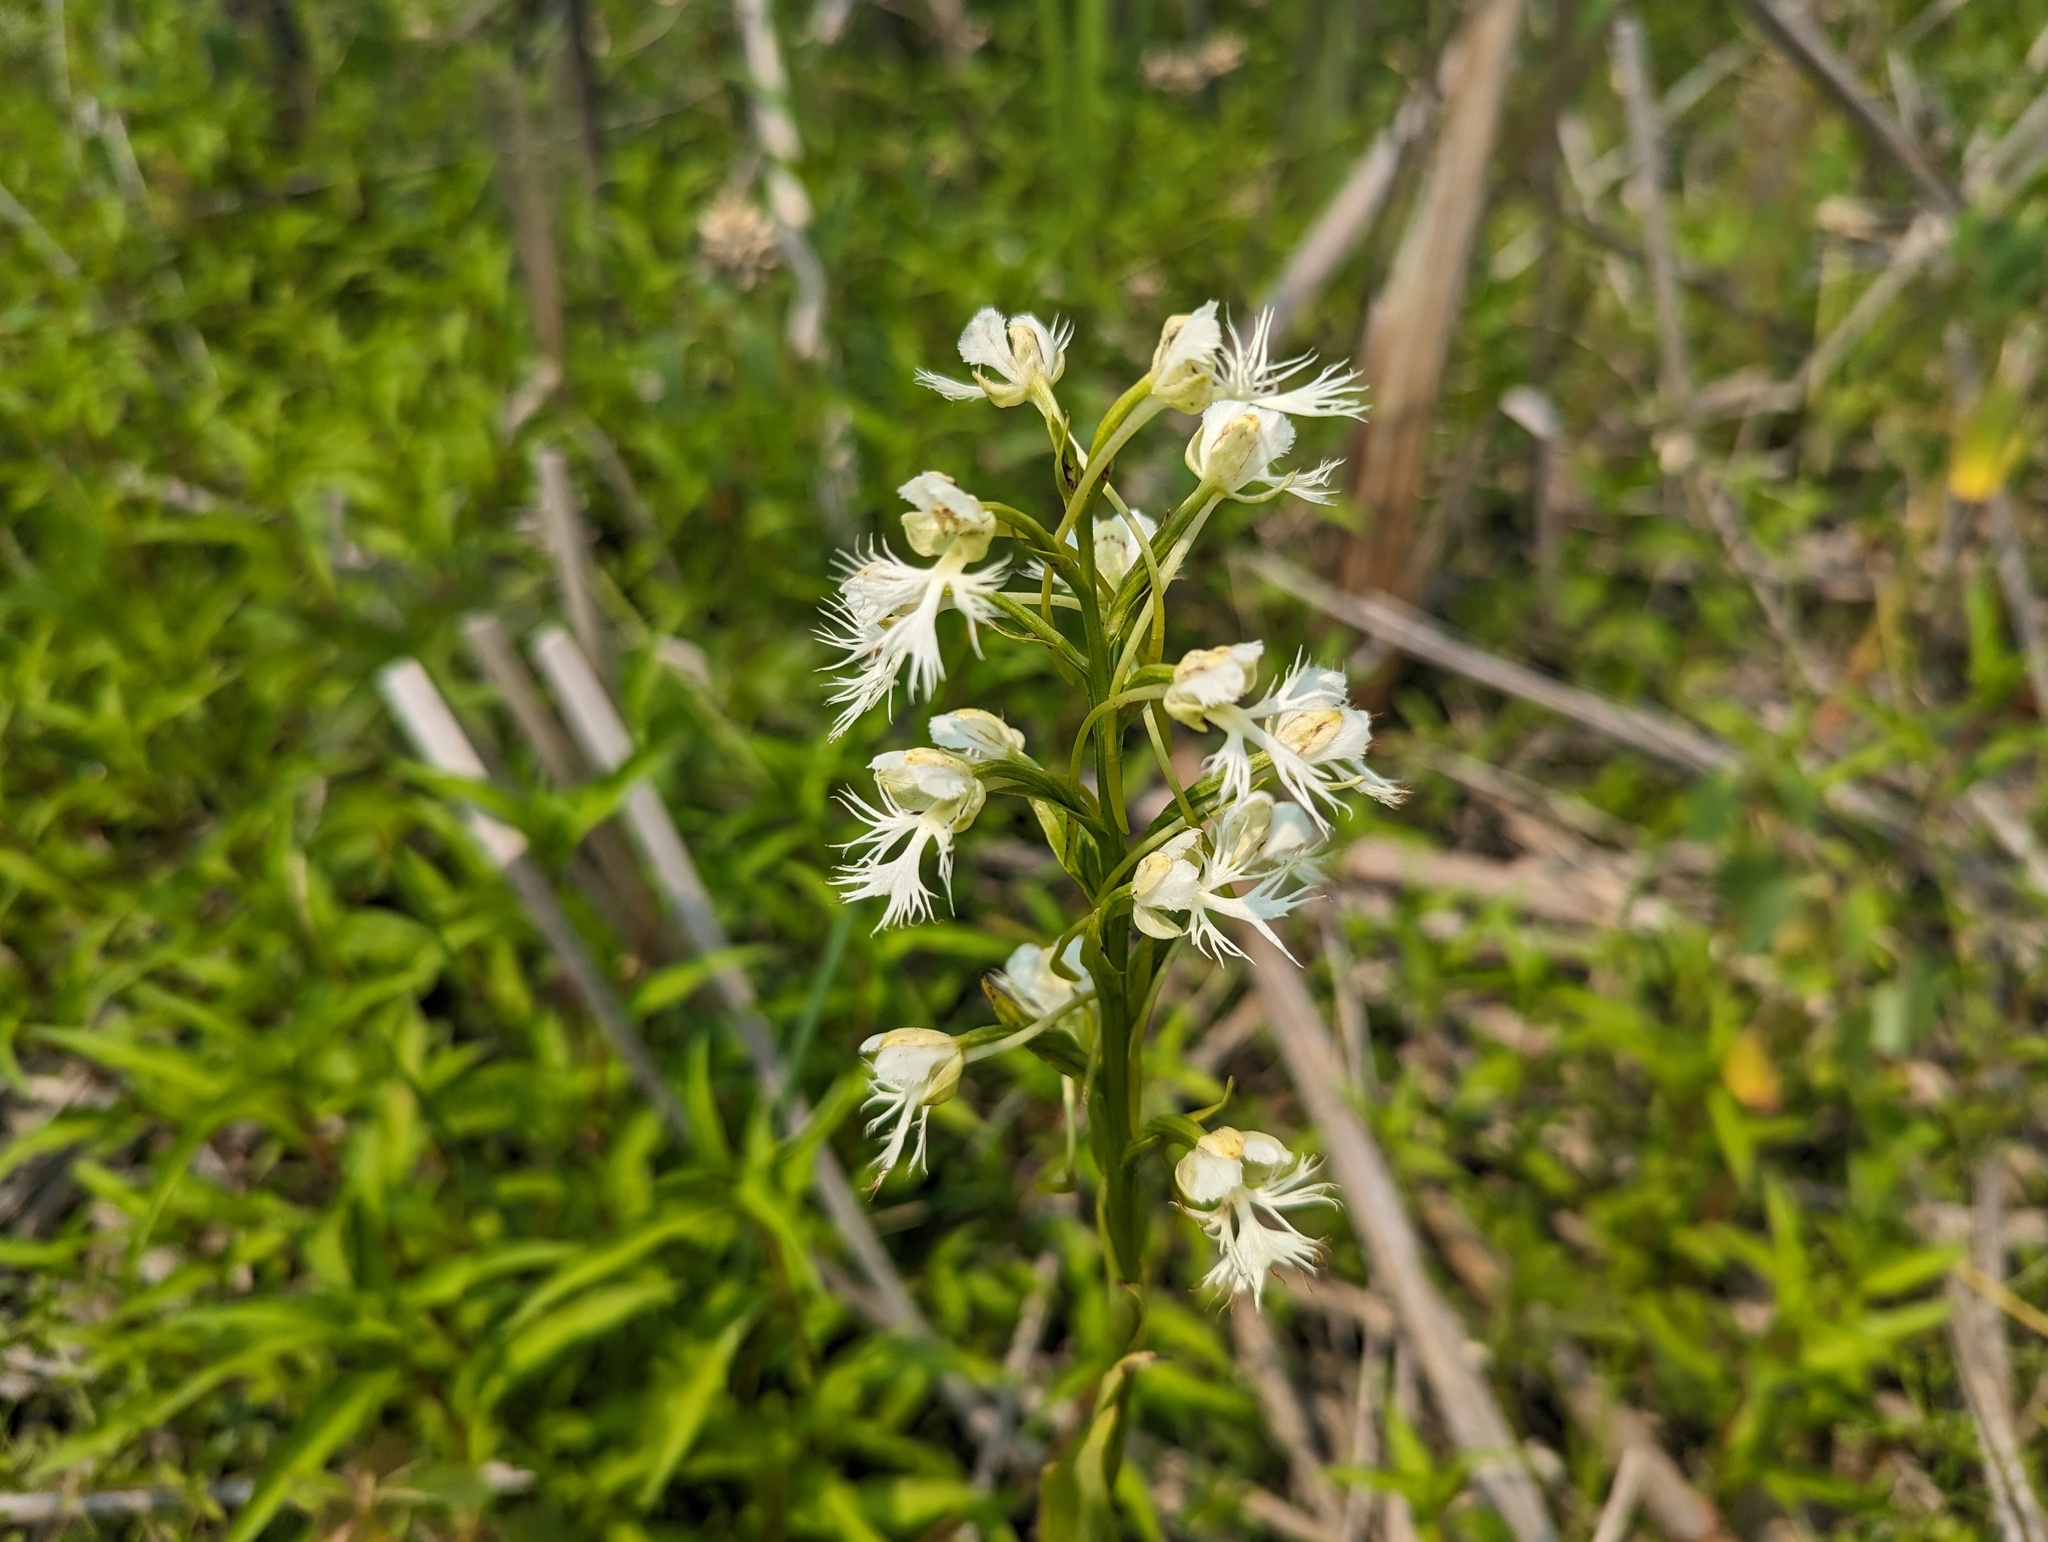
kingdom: Plantae
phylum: Tracheophyta
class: Liliopsida
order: Asparagales
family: Orchidaceae
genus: Platanthera
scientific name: Platanthera leucophaea
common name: Eastern prairie white-fringed orchid
